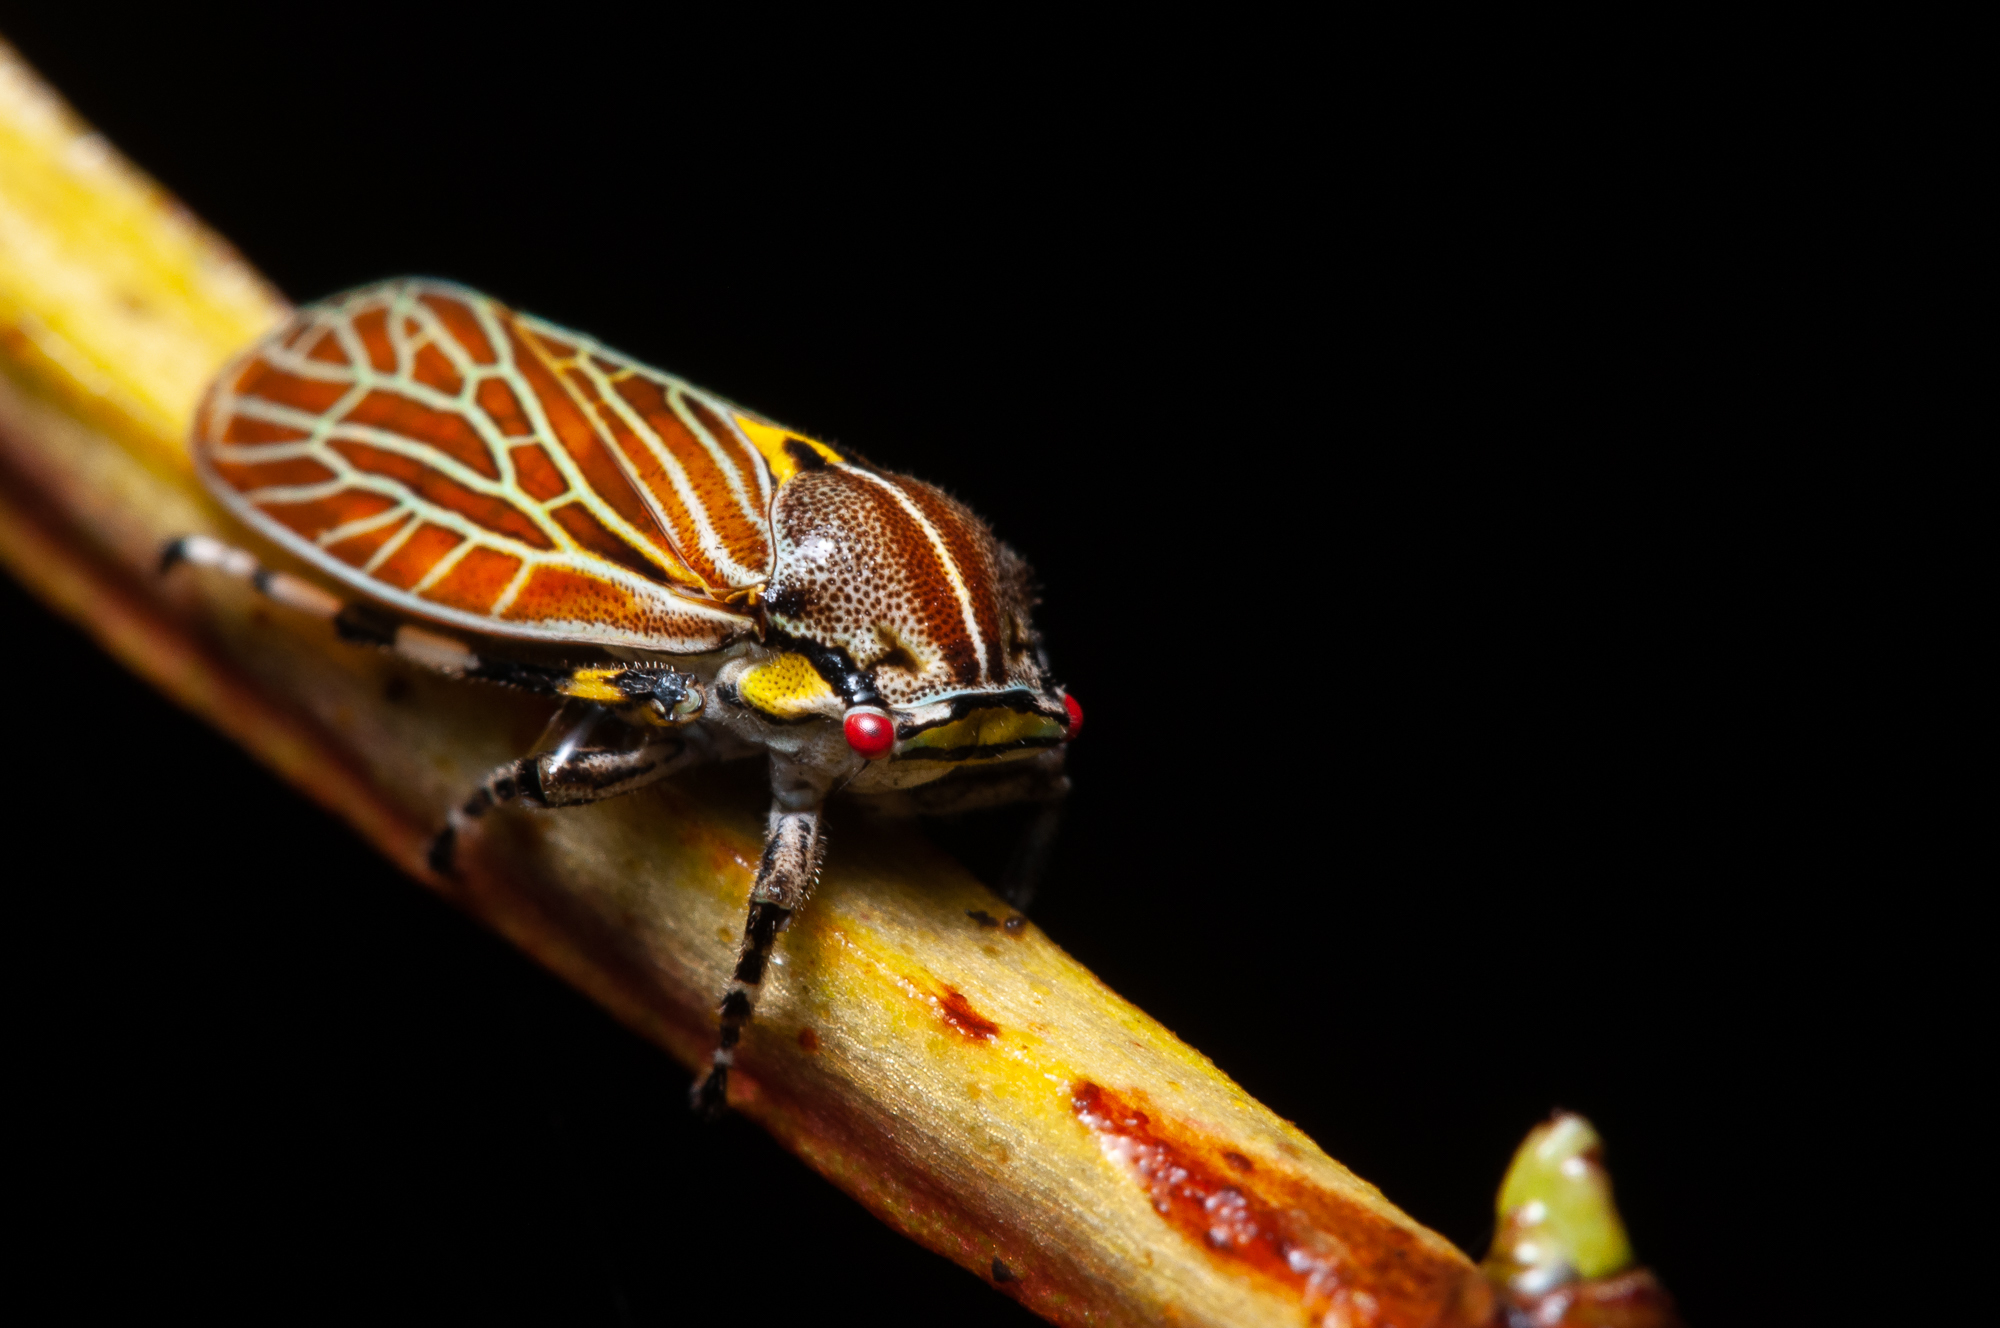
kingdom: Animalia
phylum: Arthropoda
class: Insecta
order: Hemiptera
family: Aetalionidae
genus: Aetalion
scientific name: Aetalion reticulatum
